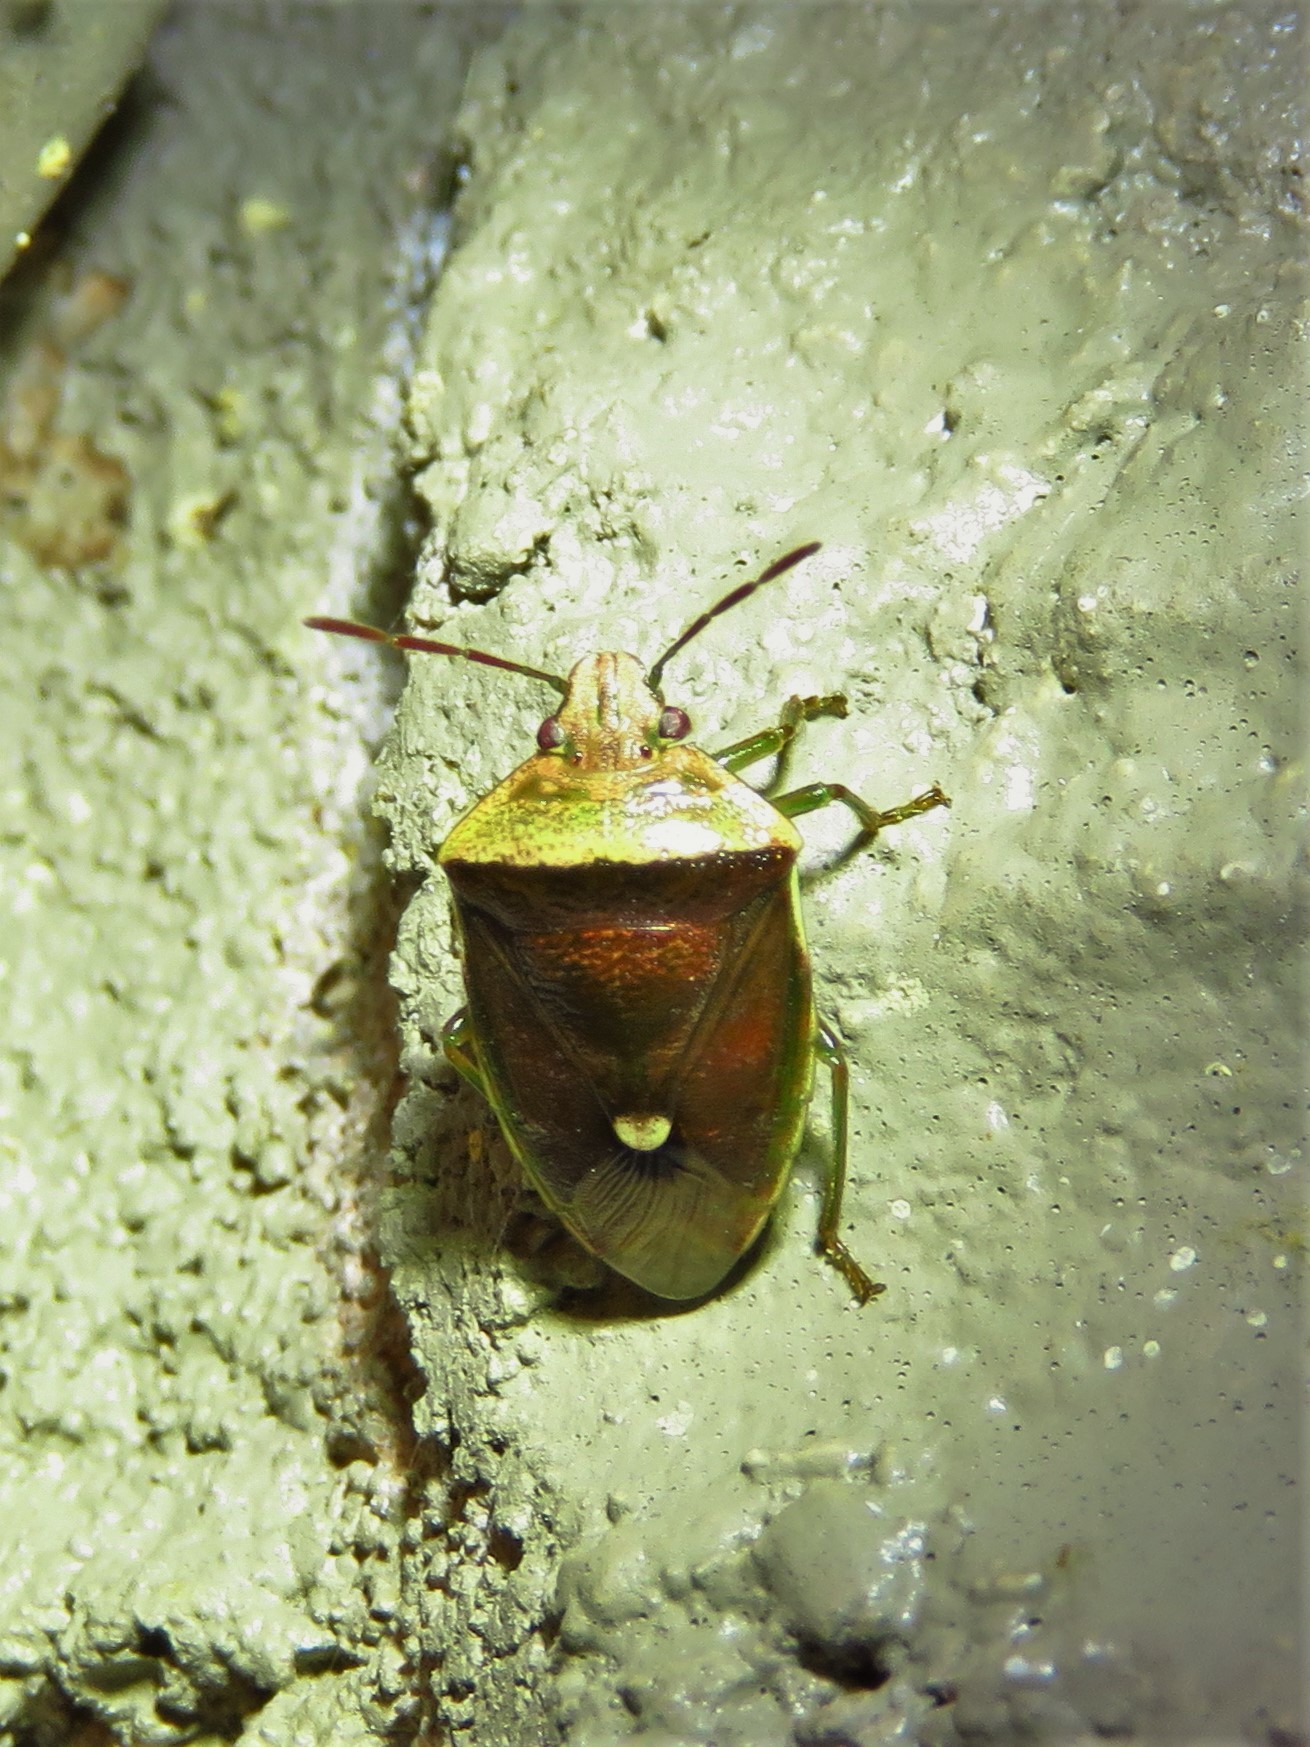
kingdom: Animalia
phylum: Arthropoda
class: Insecta
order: Hemiptera
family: Pentatomidae
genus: Banasa
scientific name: Banasa dimidiata
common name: Green burgundy stink bug
